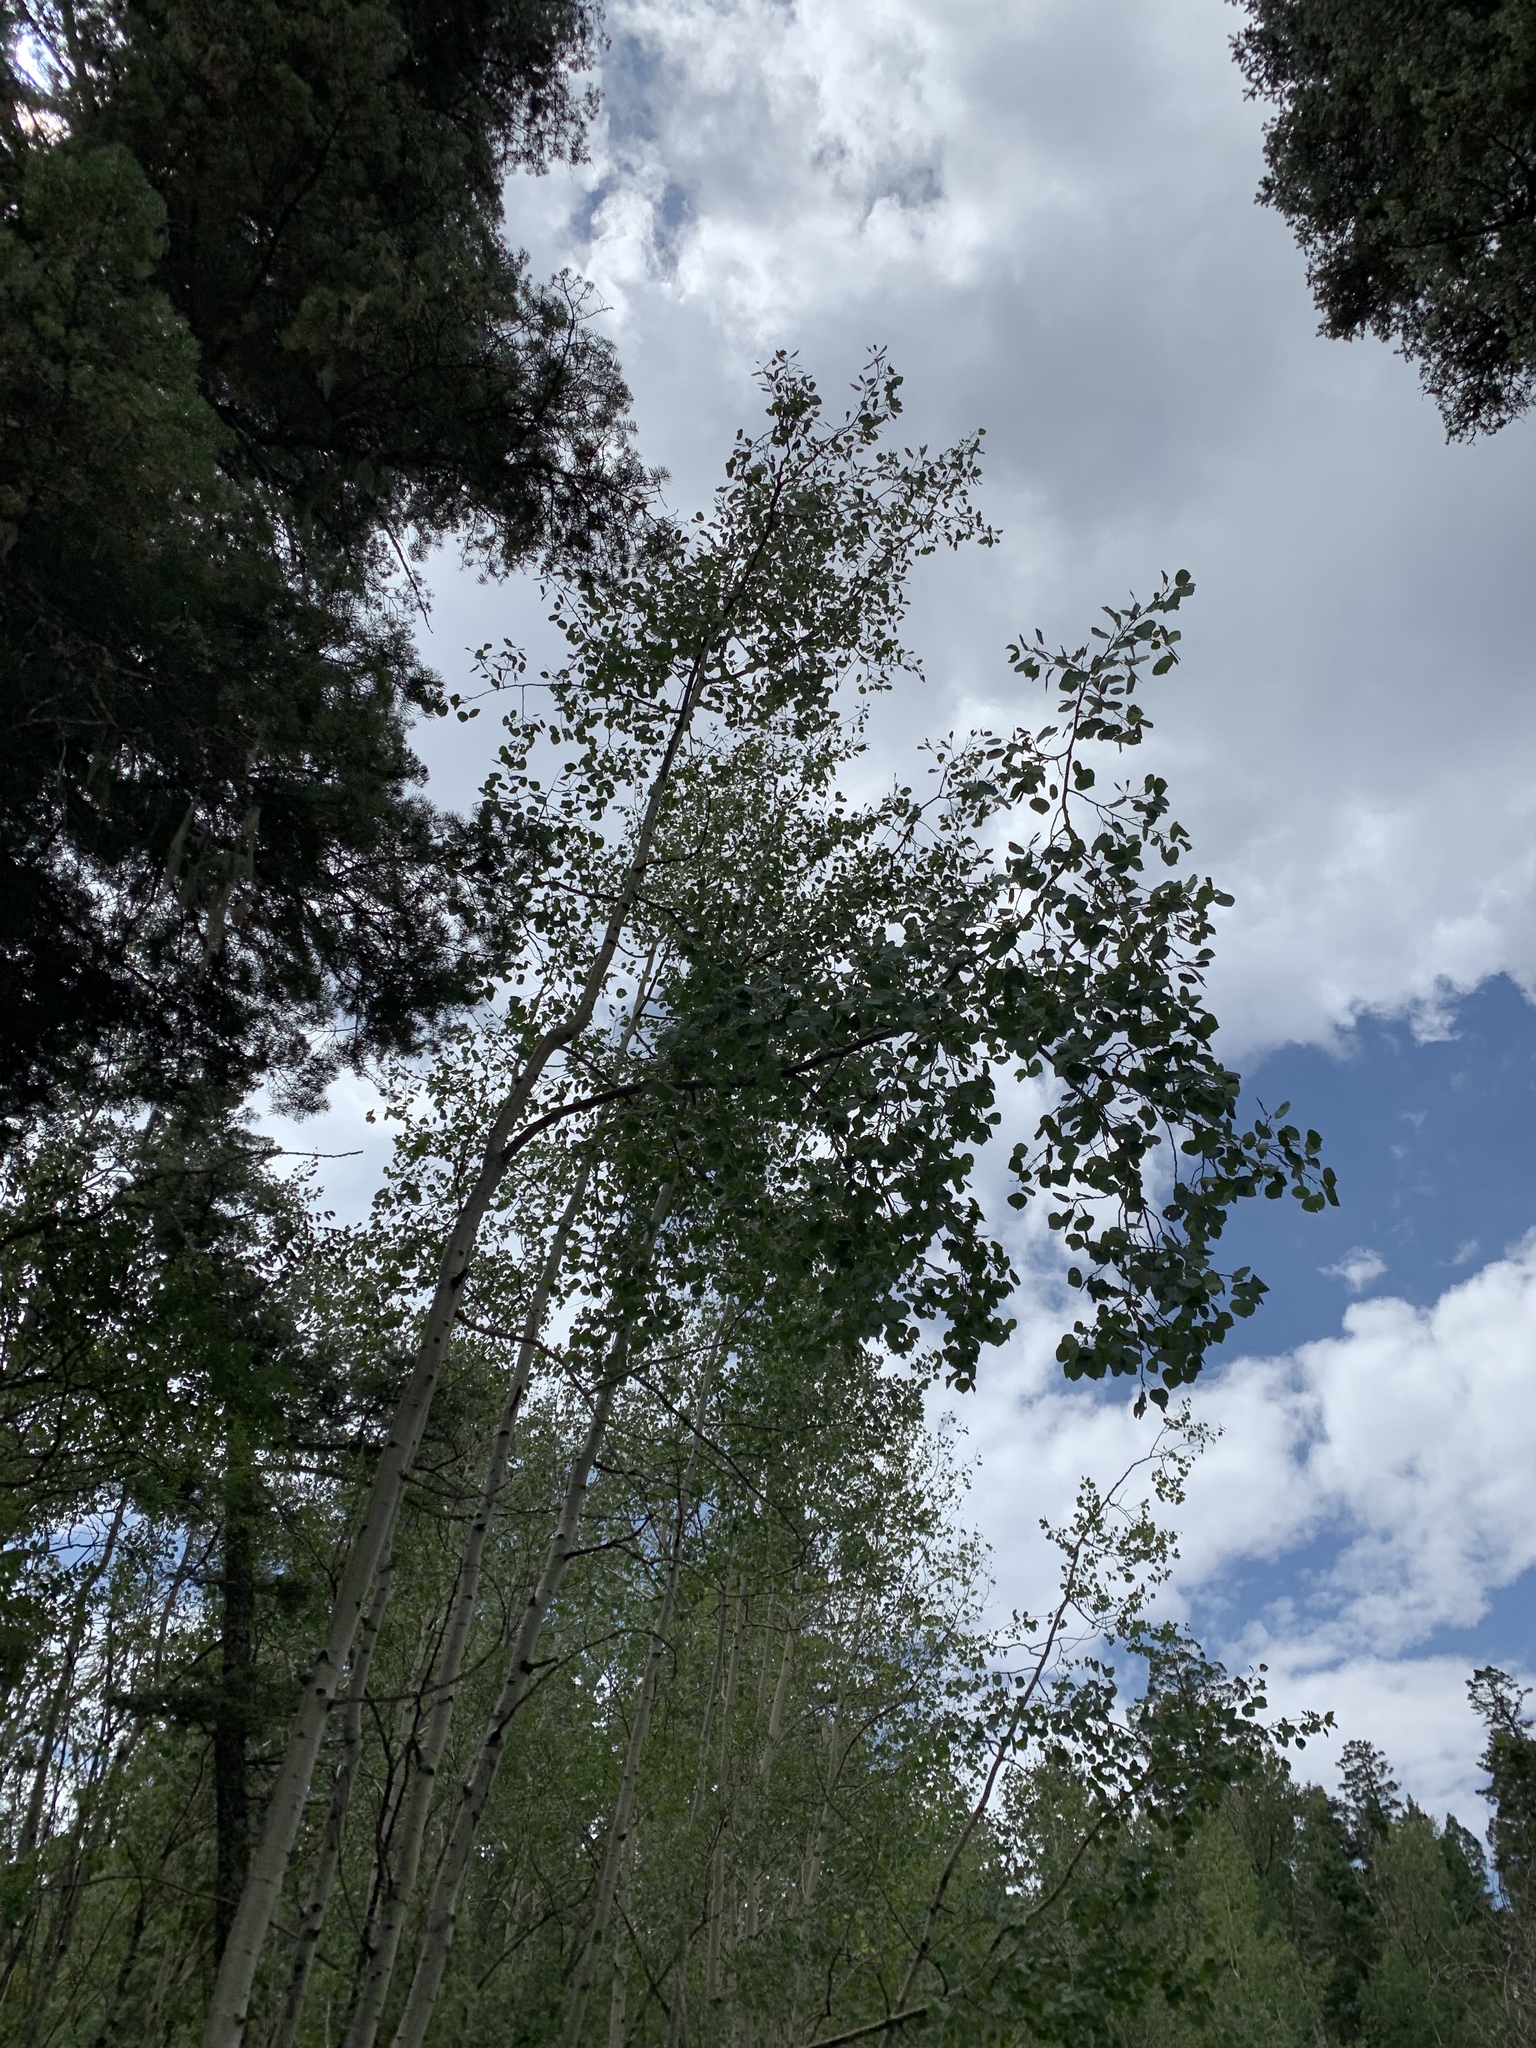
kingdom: Plantae
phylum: Tracheophyta
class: Magnoliopsida
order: Malpighiales
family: Salicaceae
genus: Populus
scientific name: Populus tremuloides
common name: Quaking aspen
